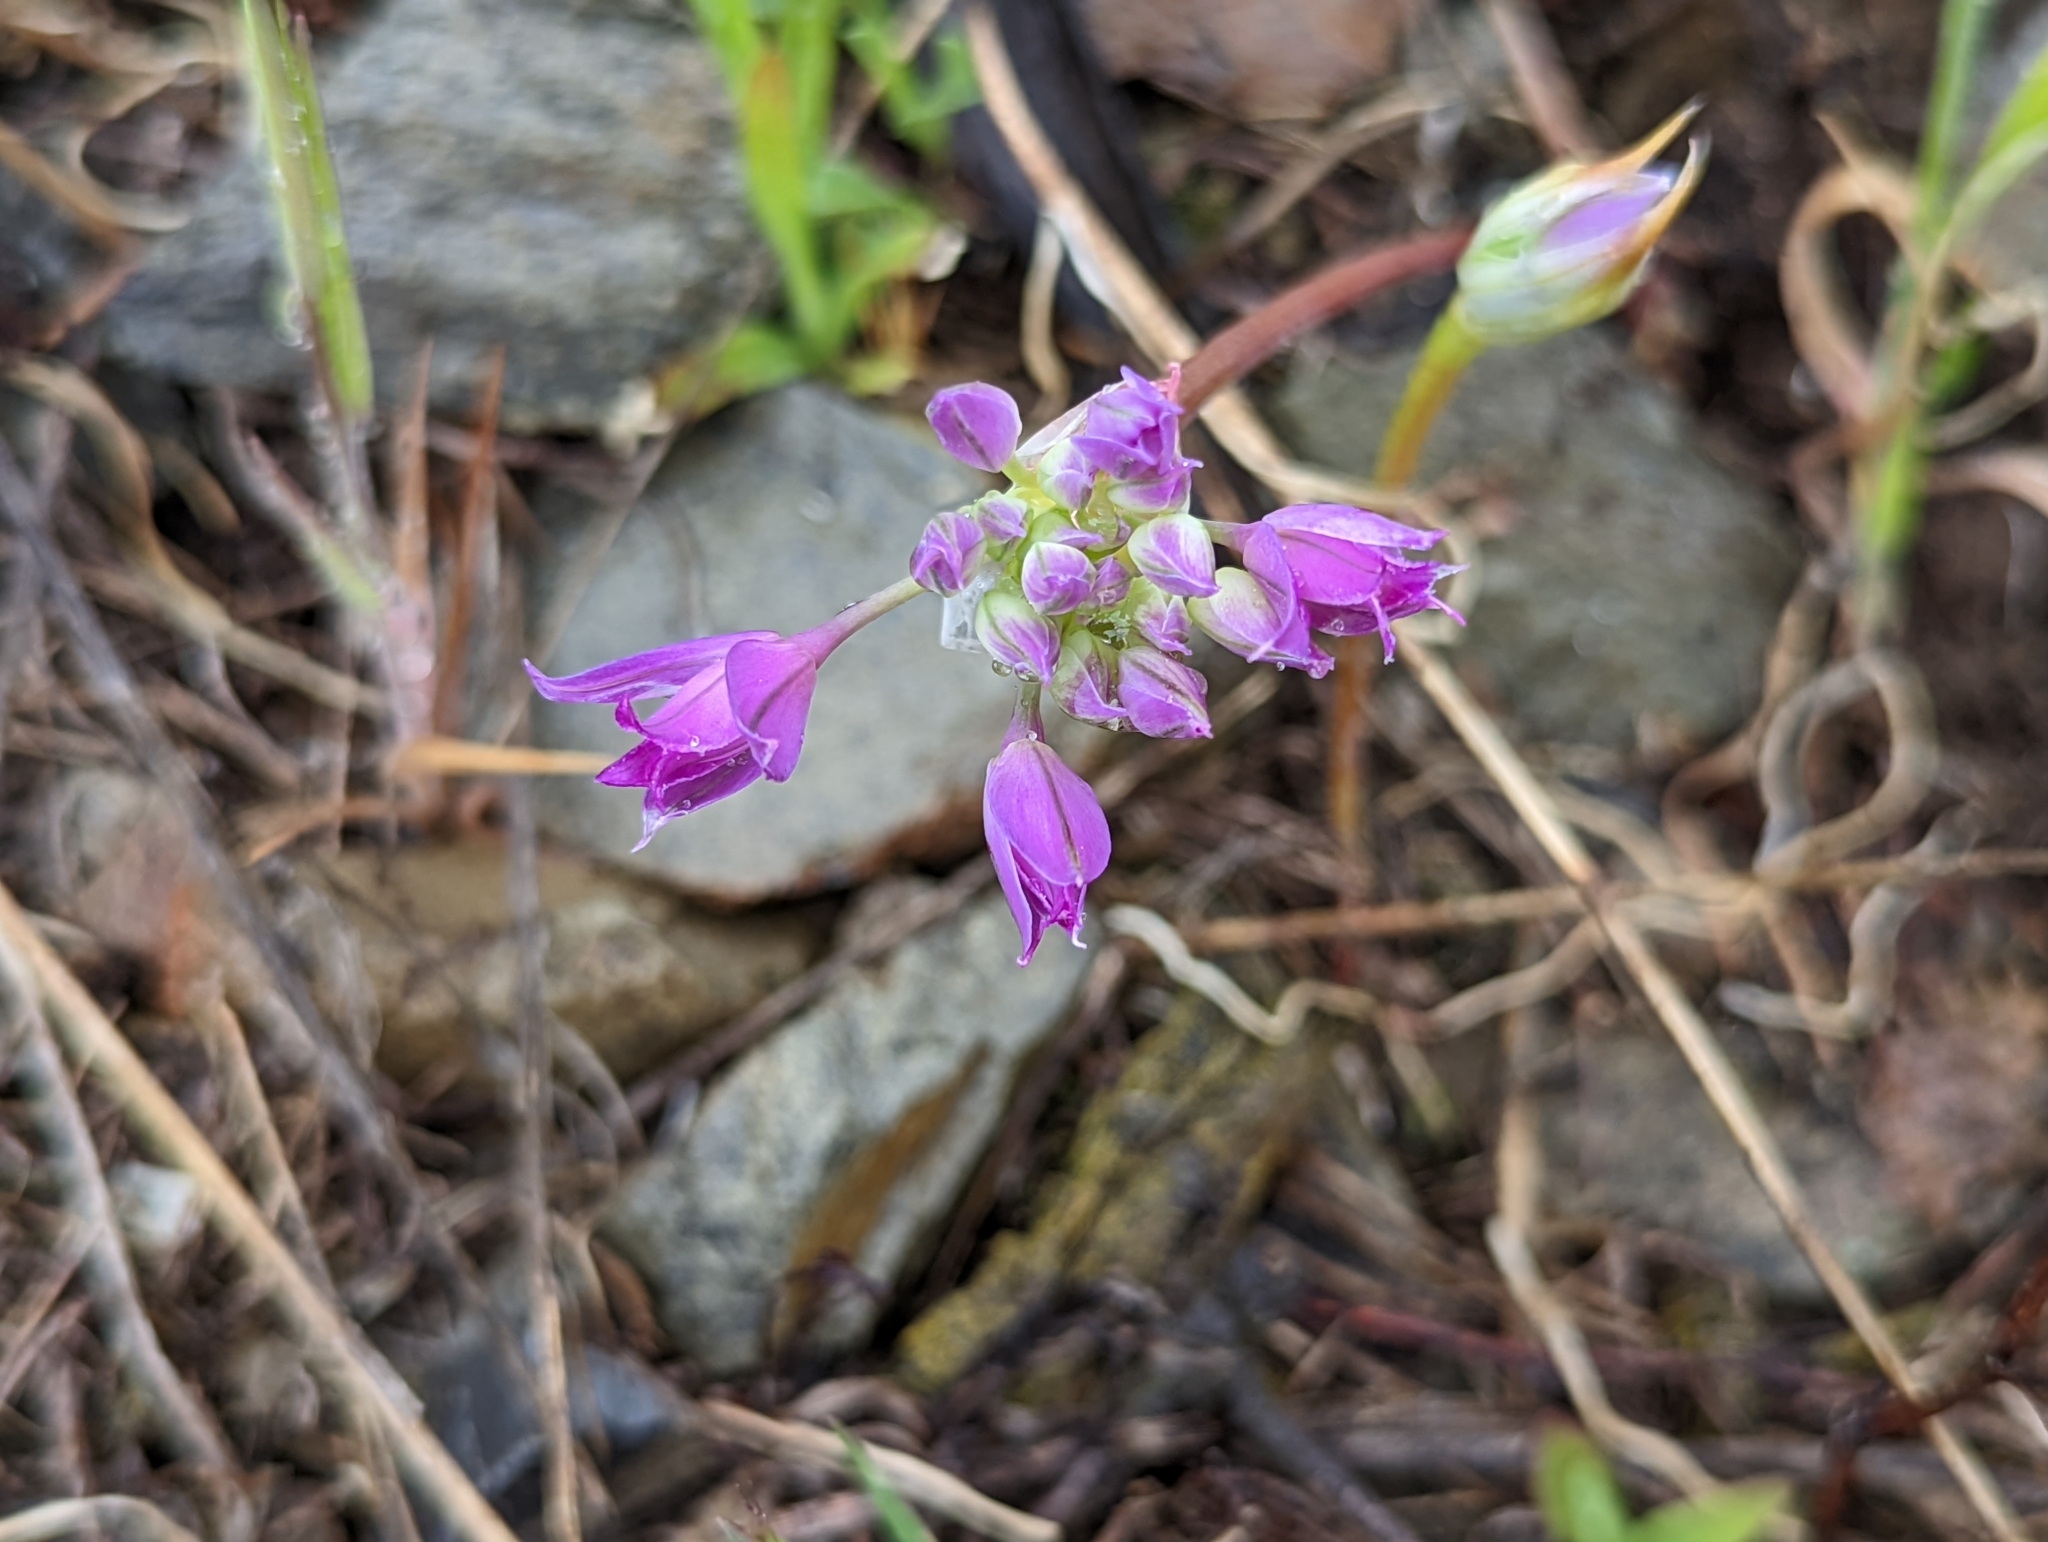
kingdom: Plantae
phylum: Tracheophyta
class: Liliopsida
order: Asparagales
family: Amaryllidaceae
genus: Allium
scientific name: Allium acuminatum
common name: Hooker's onion
